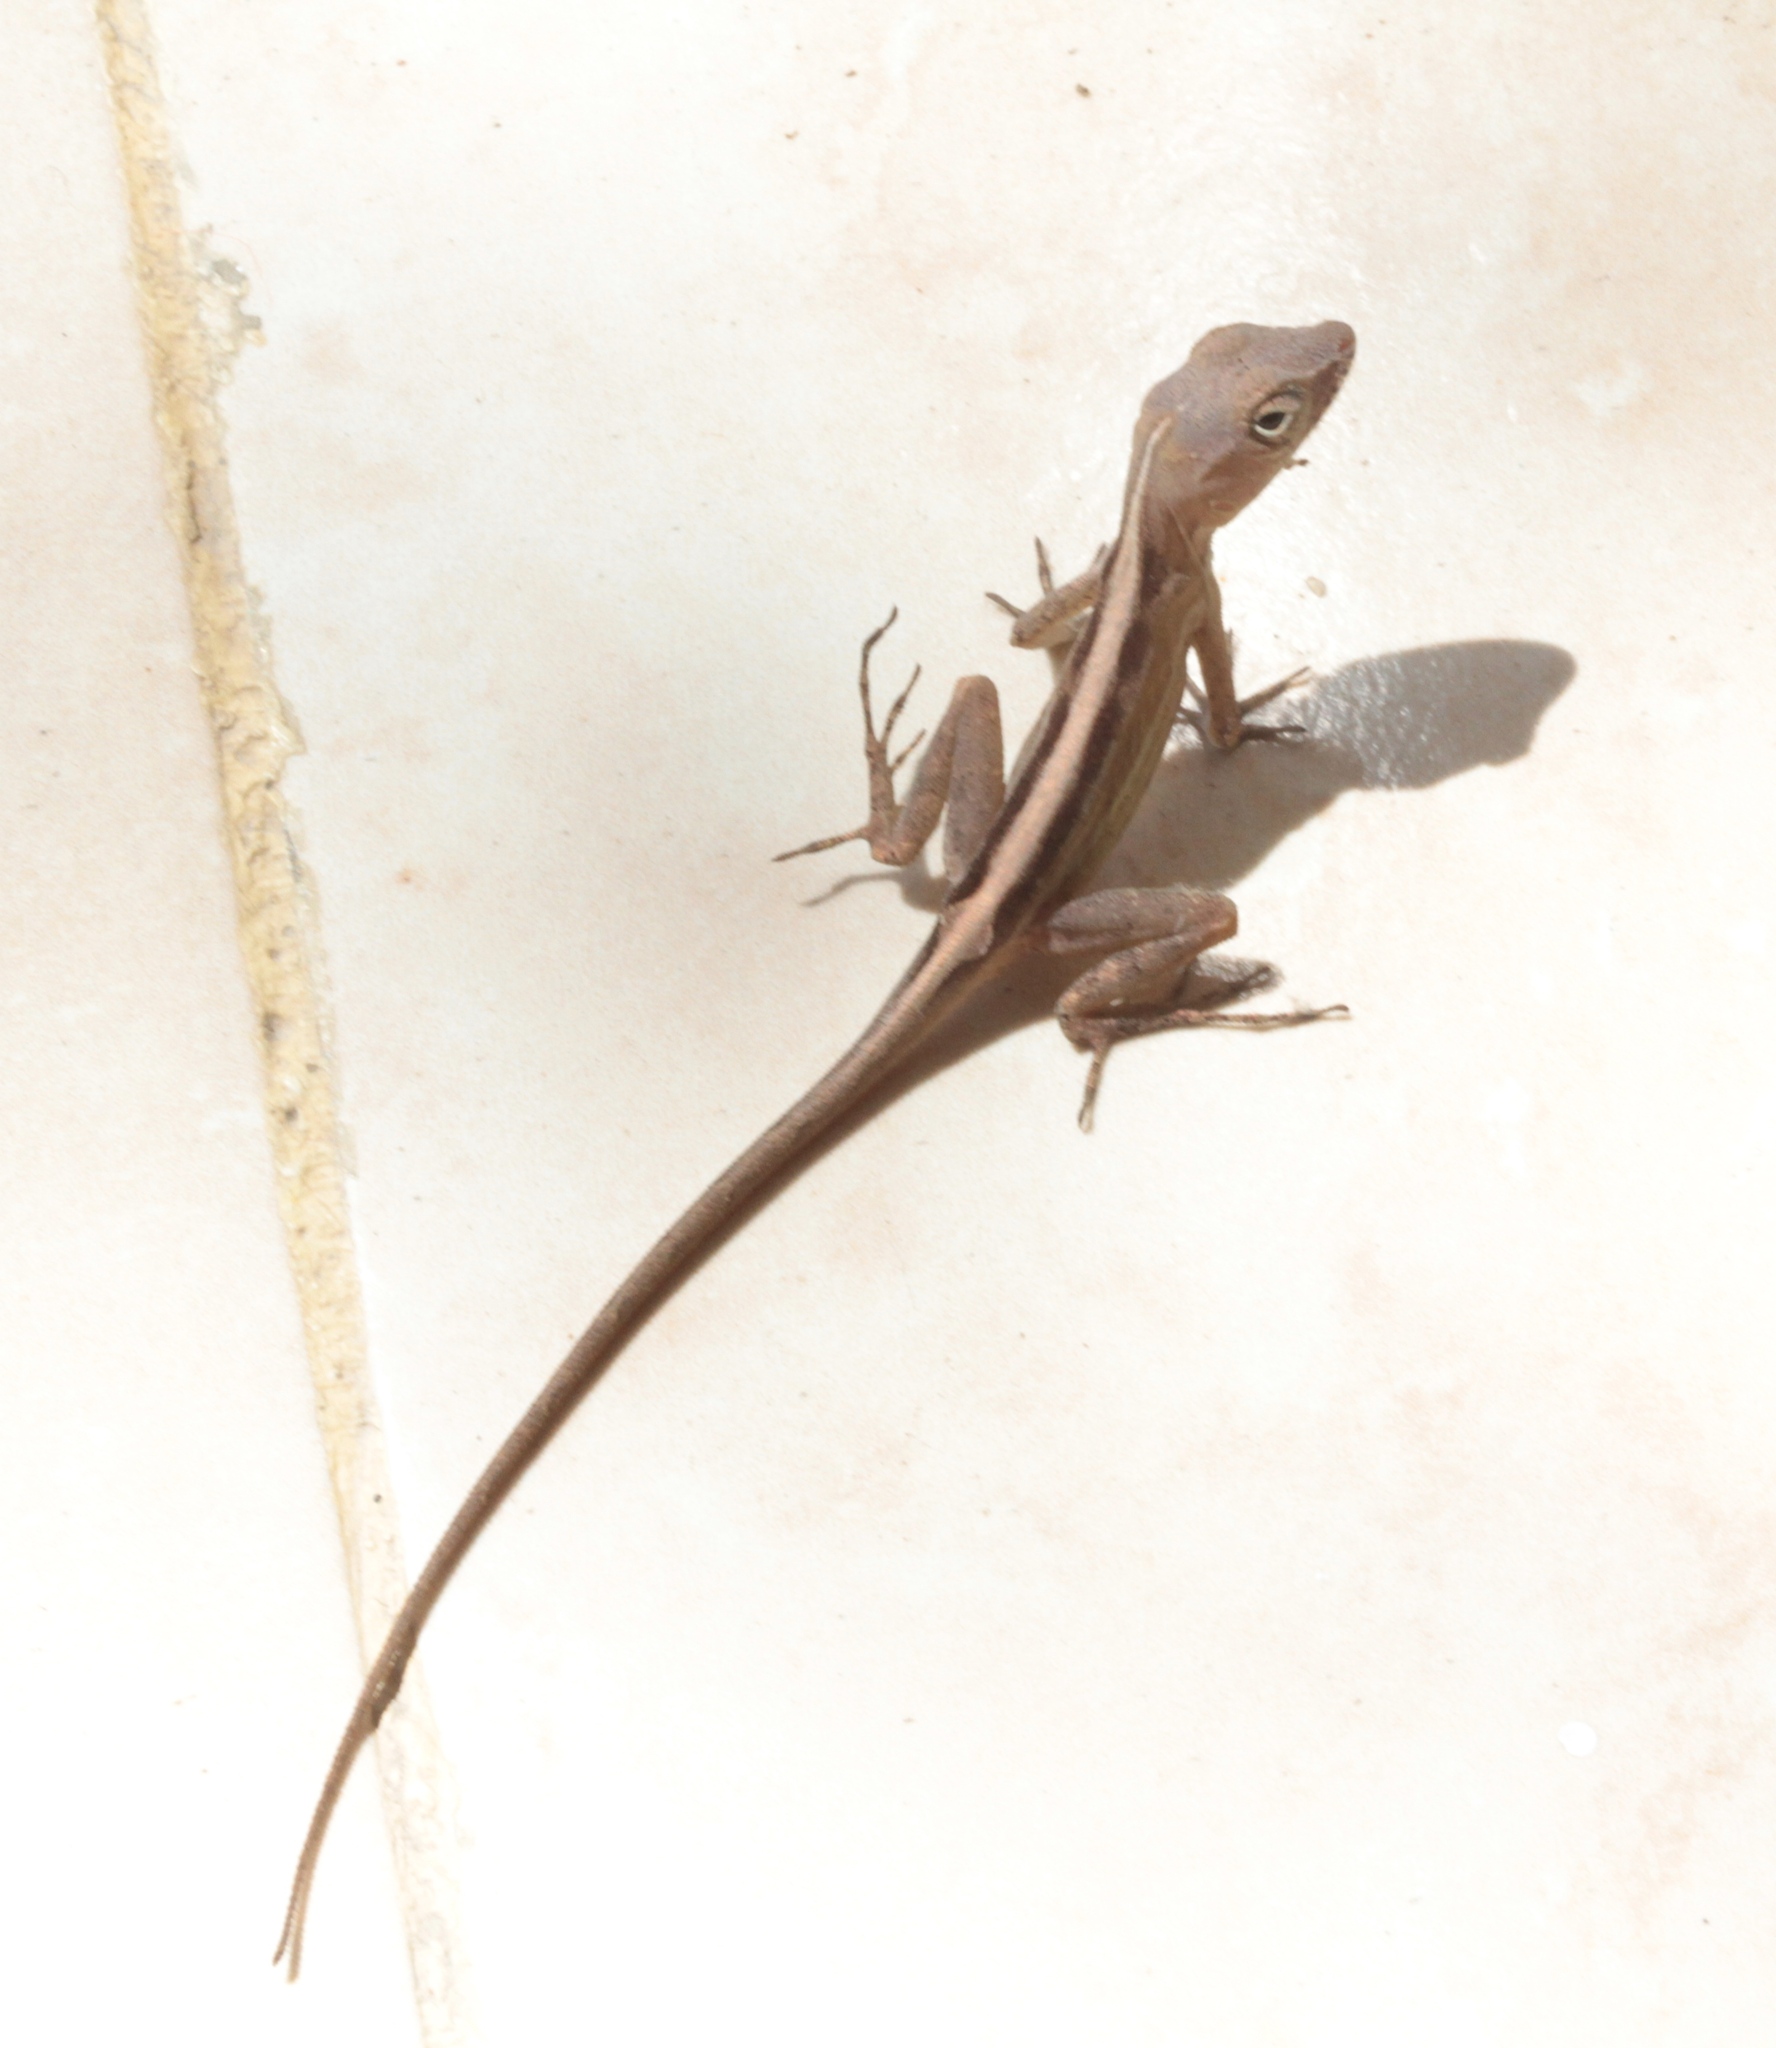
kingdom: Animalia
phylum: Chordata
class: Squamata
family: Dactyloidae
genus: Anolis
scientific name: Anolis australis
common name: Southern stout anole
